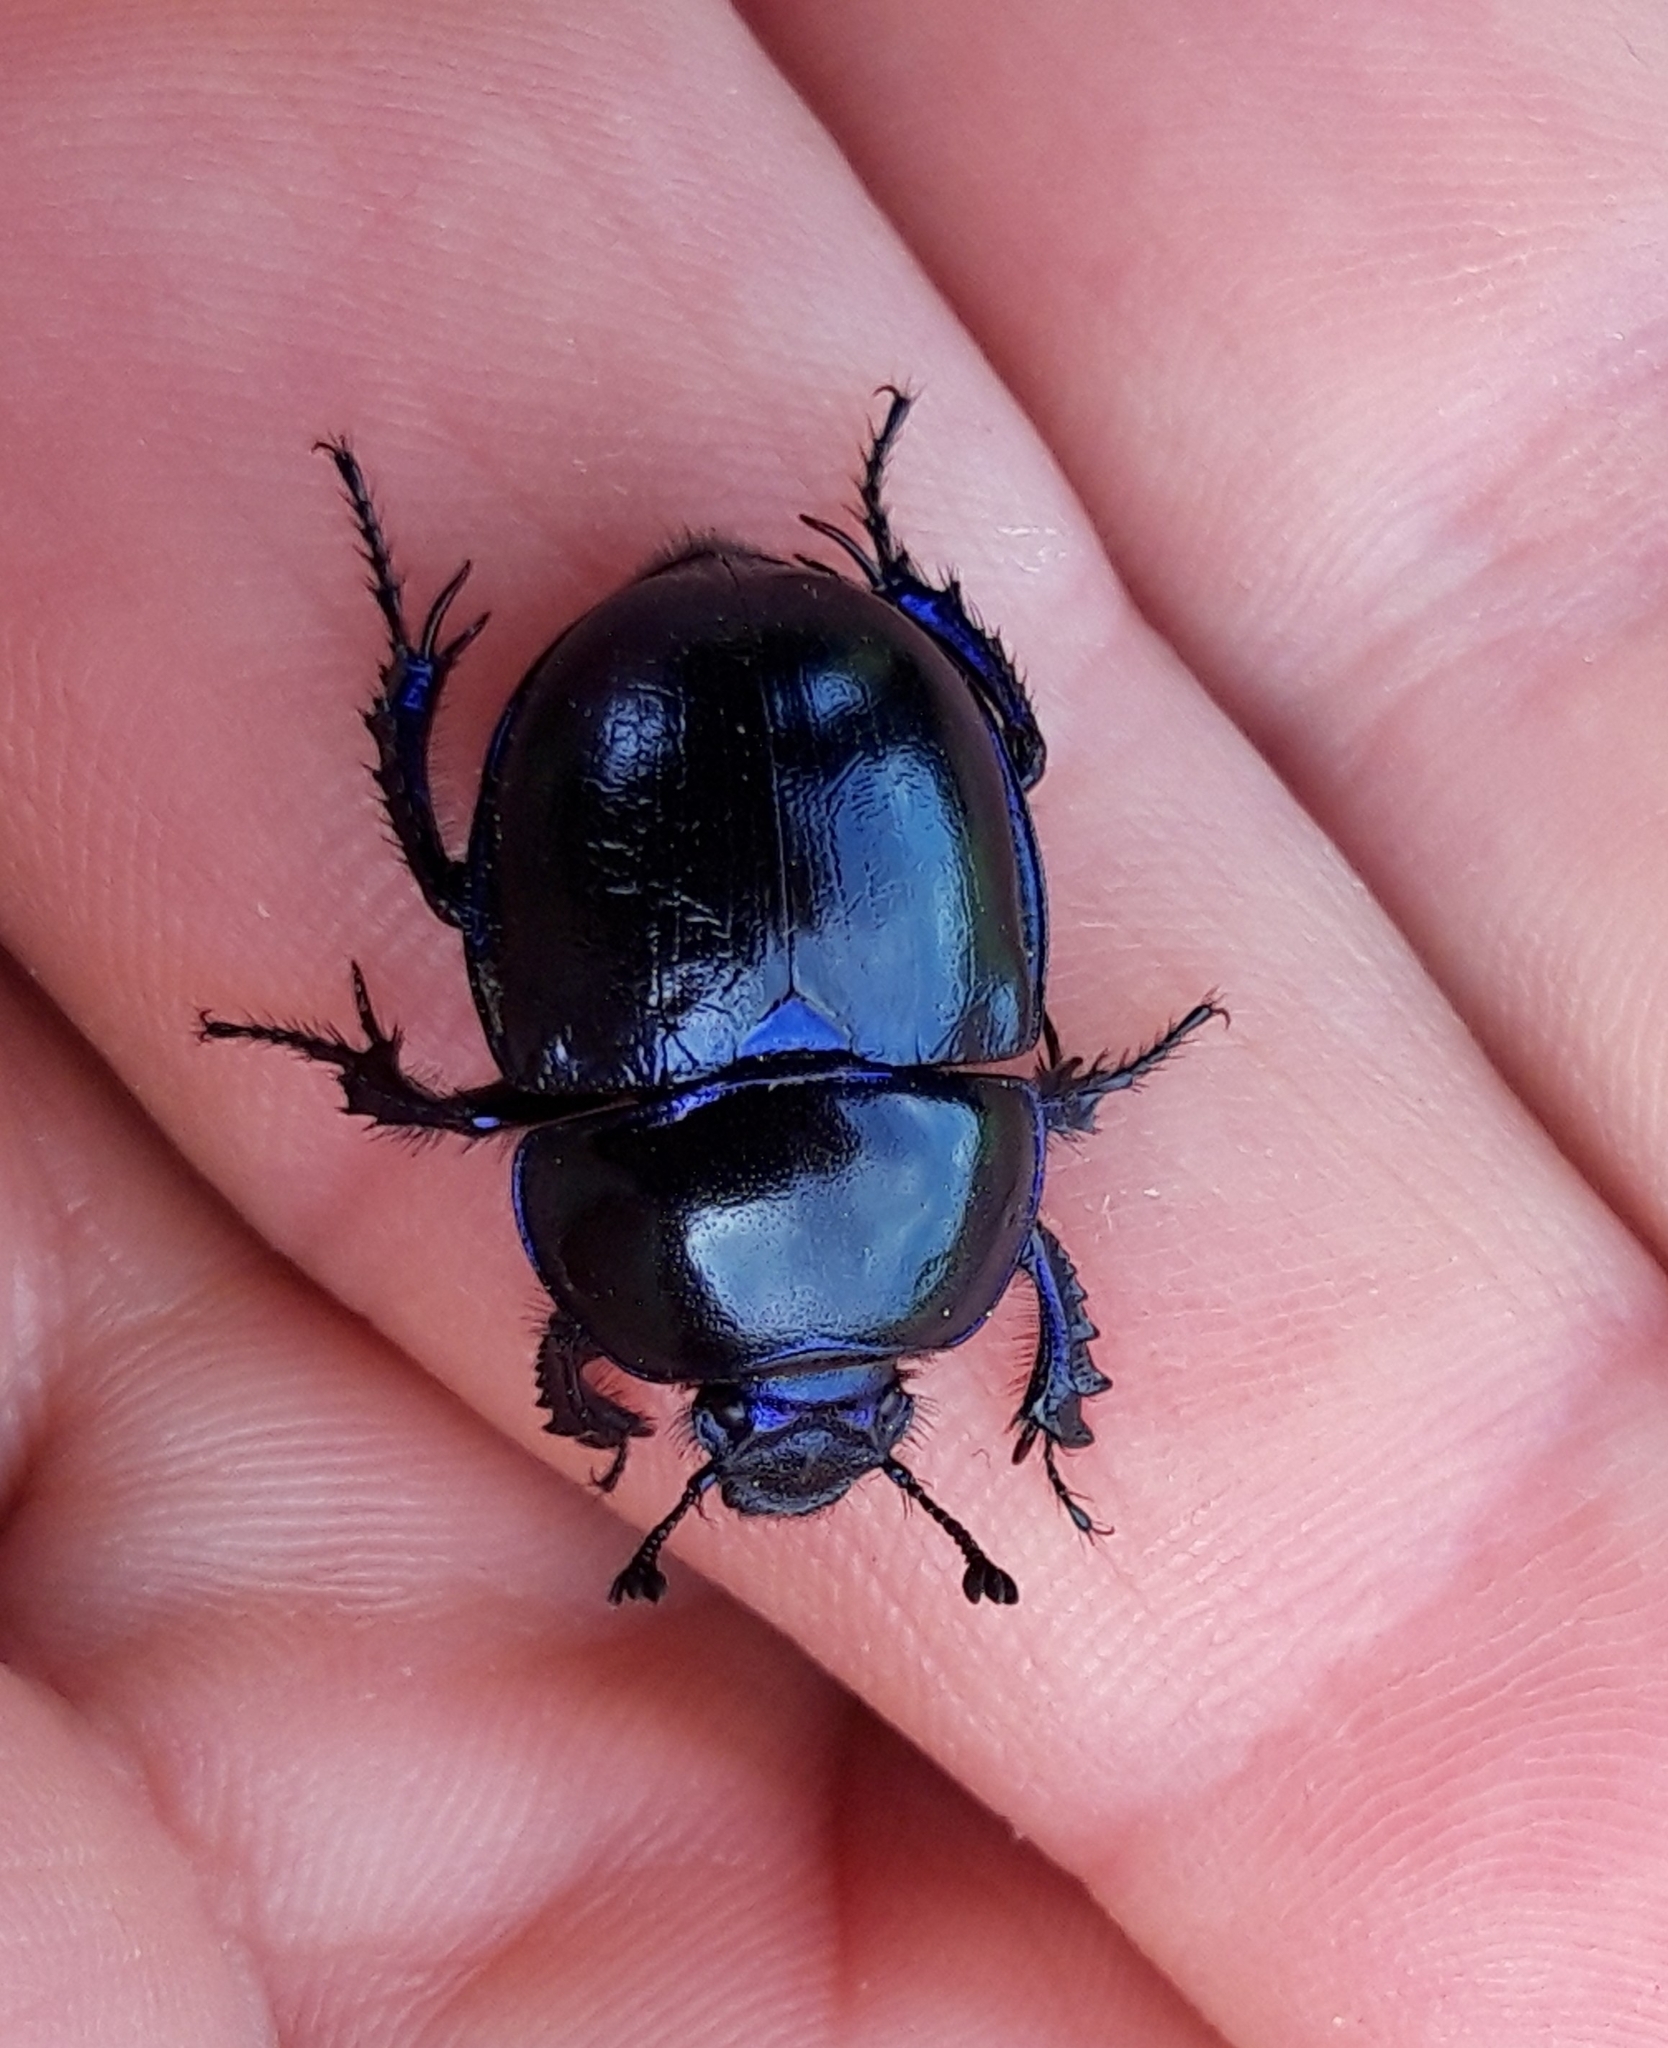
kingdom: Animalia
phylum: Arthropoda
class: Insecta
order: Coleoptera
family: Geotrupidae
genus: Trypocopris
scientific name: Trypocopris vernalis
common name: Spring dumbledor
